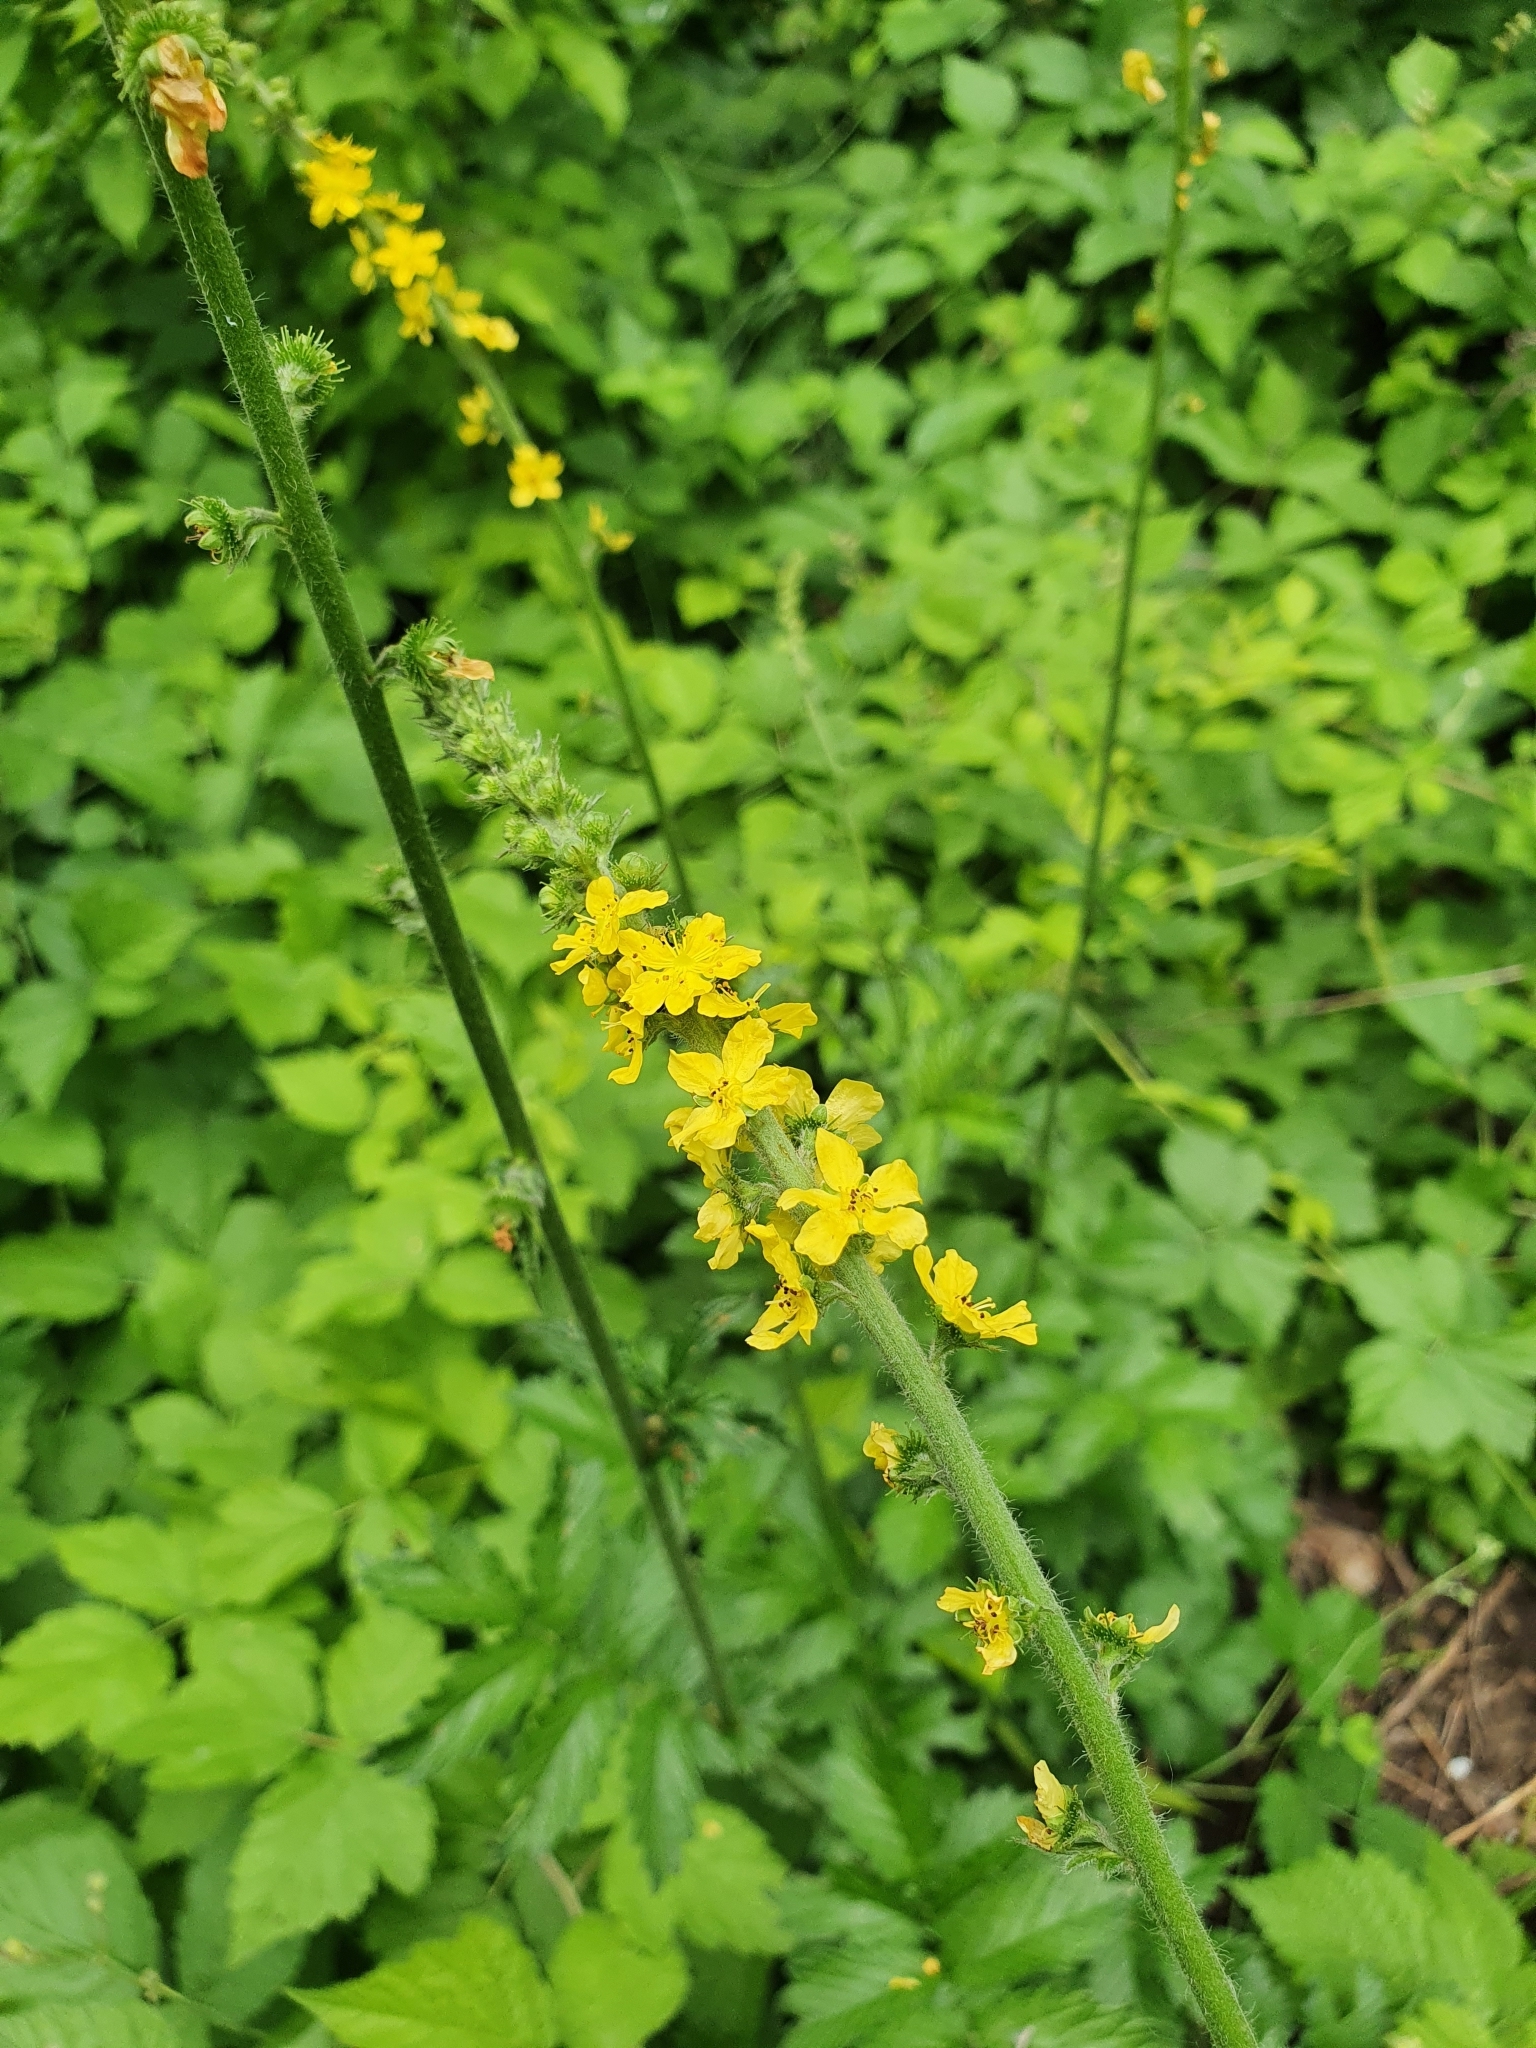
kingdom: Plantae
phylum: Tracheophyta
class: Magnoliopsida
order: Rosales
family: Rosaceae
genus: Agrimonia
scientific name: Agrimonia eupatoria
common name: Agrimony
